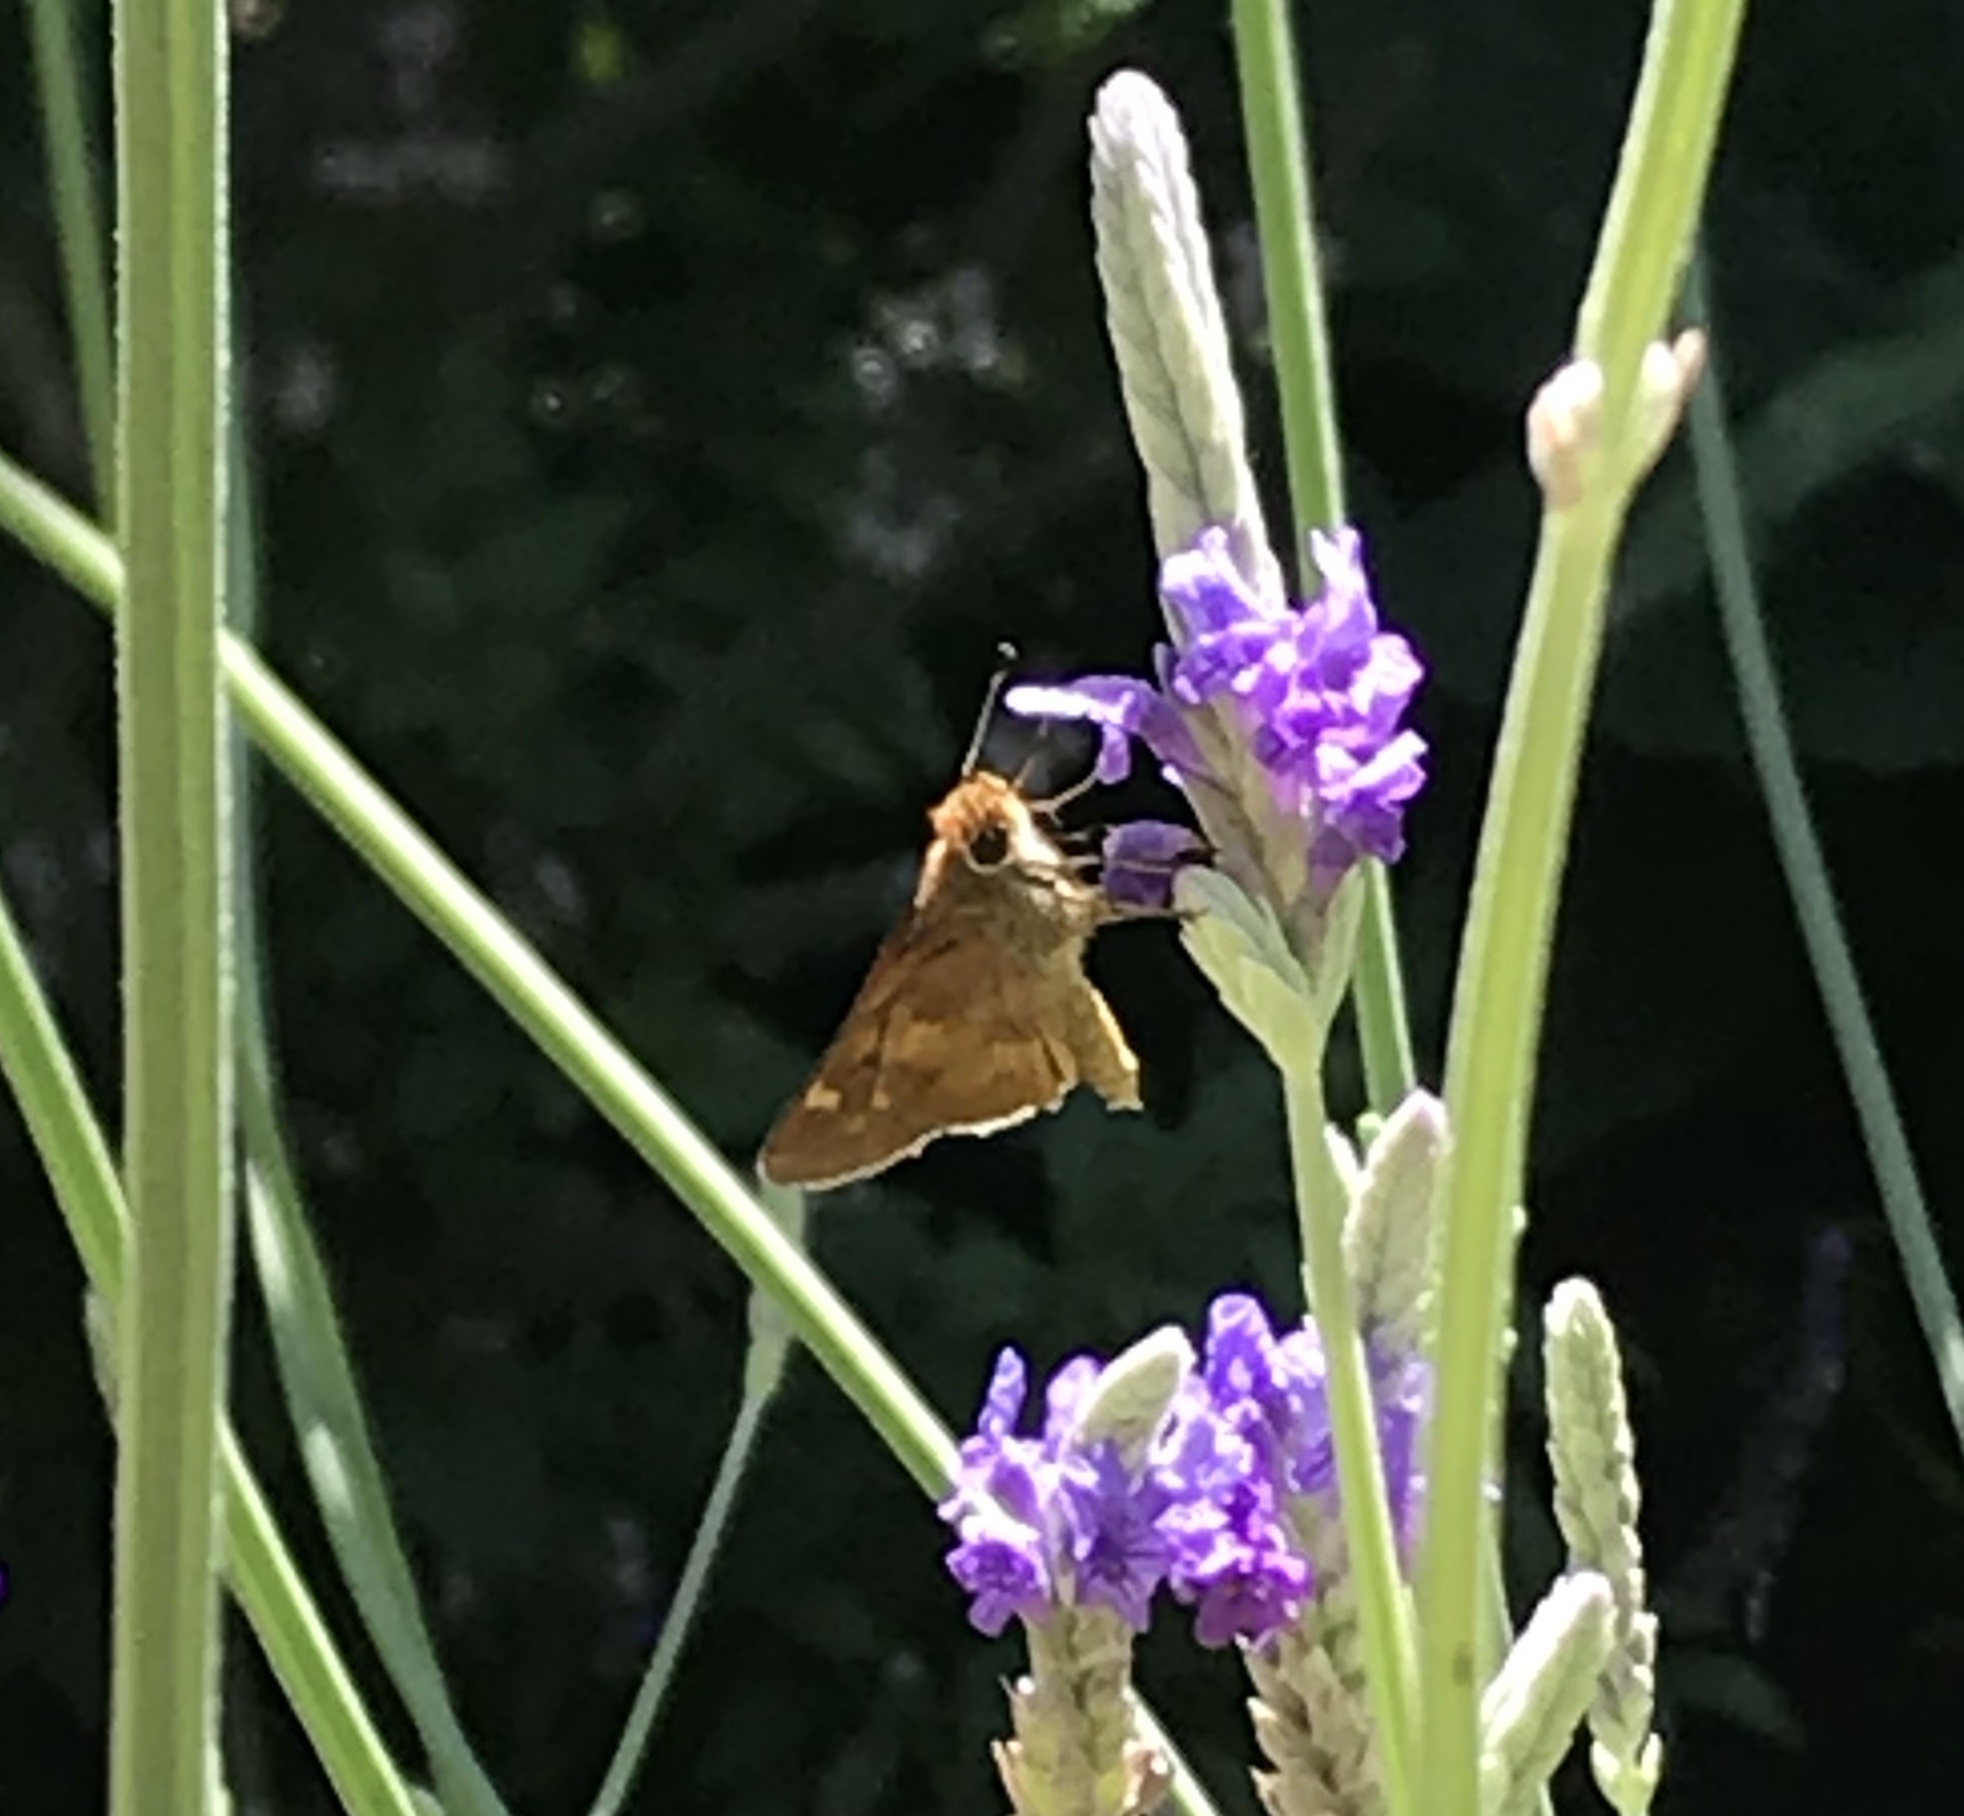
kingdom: Animalia
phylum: Arthropoda
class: Insecta
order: Lepidoptera
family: Hesperiidae
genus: Lon
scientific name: Lon melane
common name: Umber skipper
